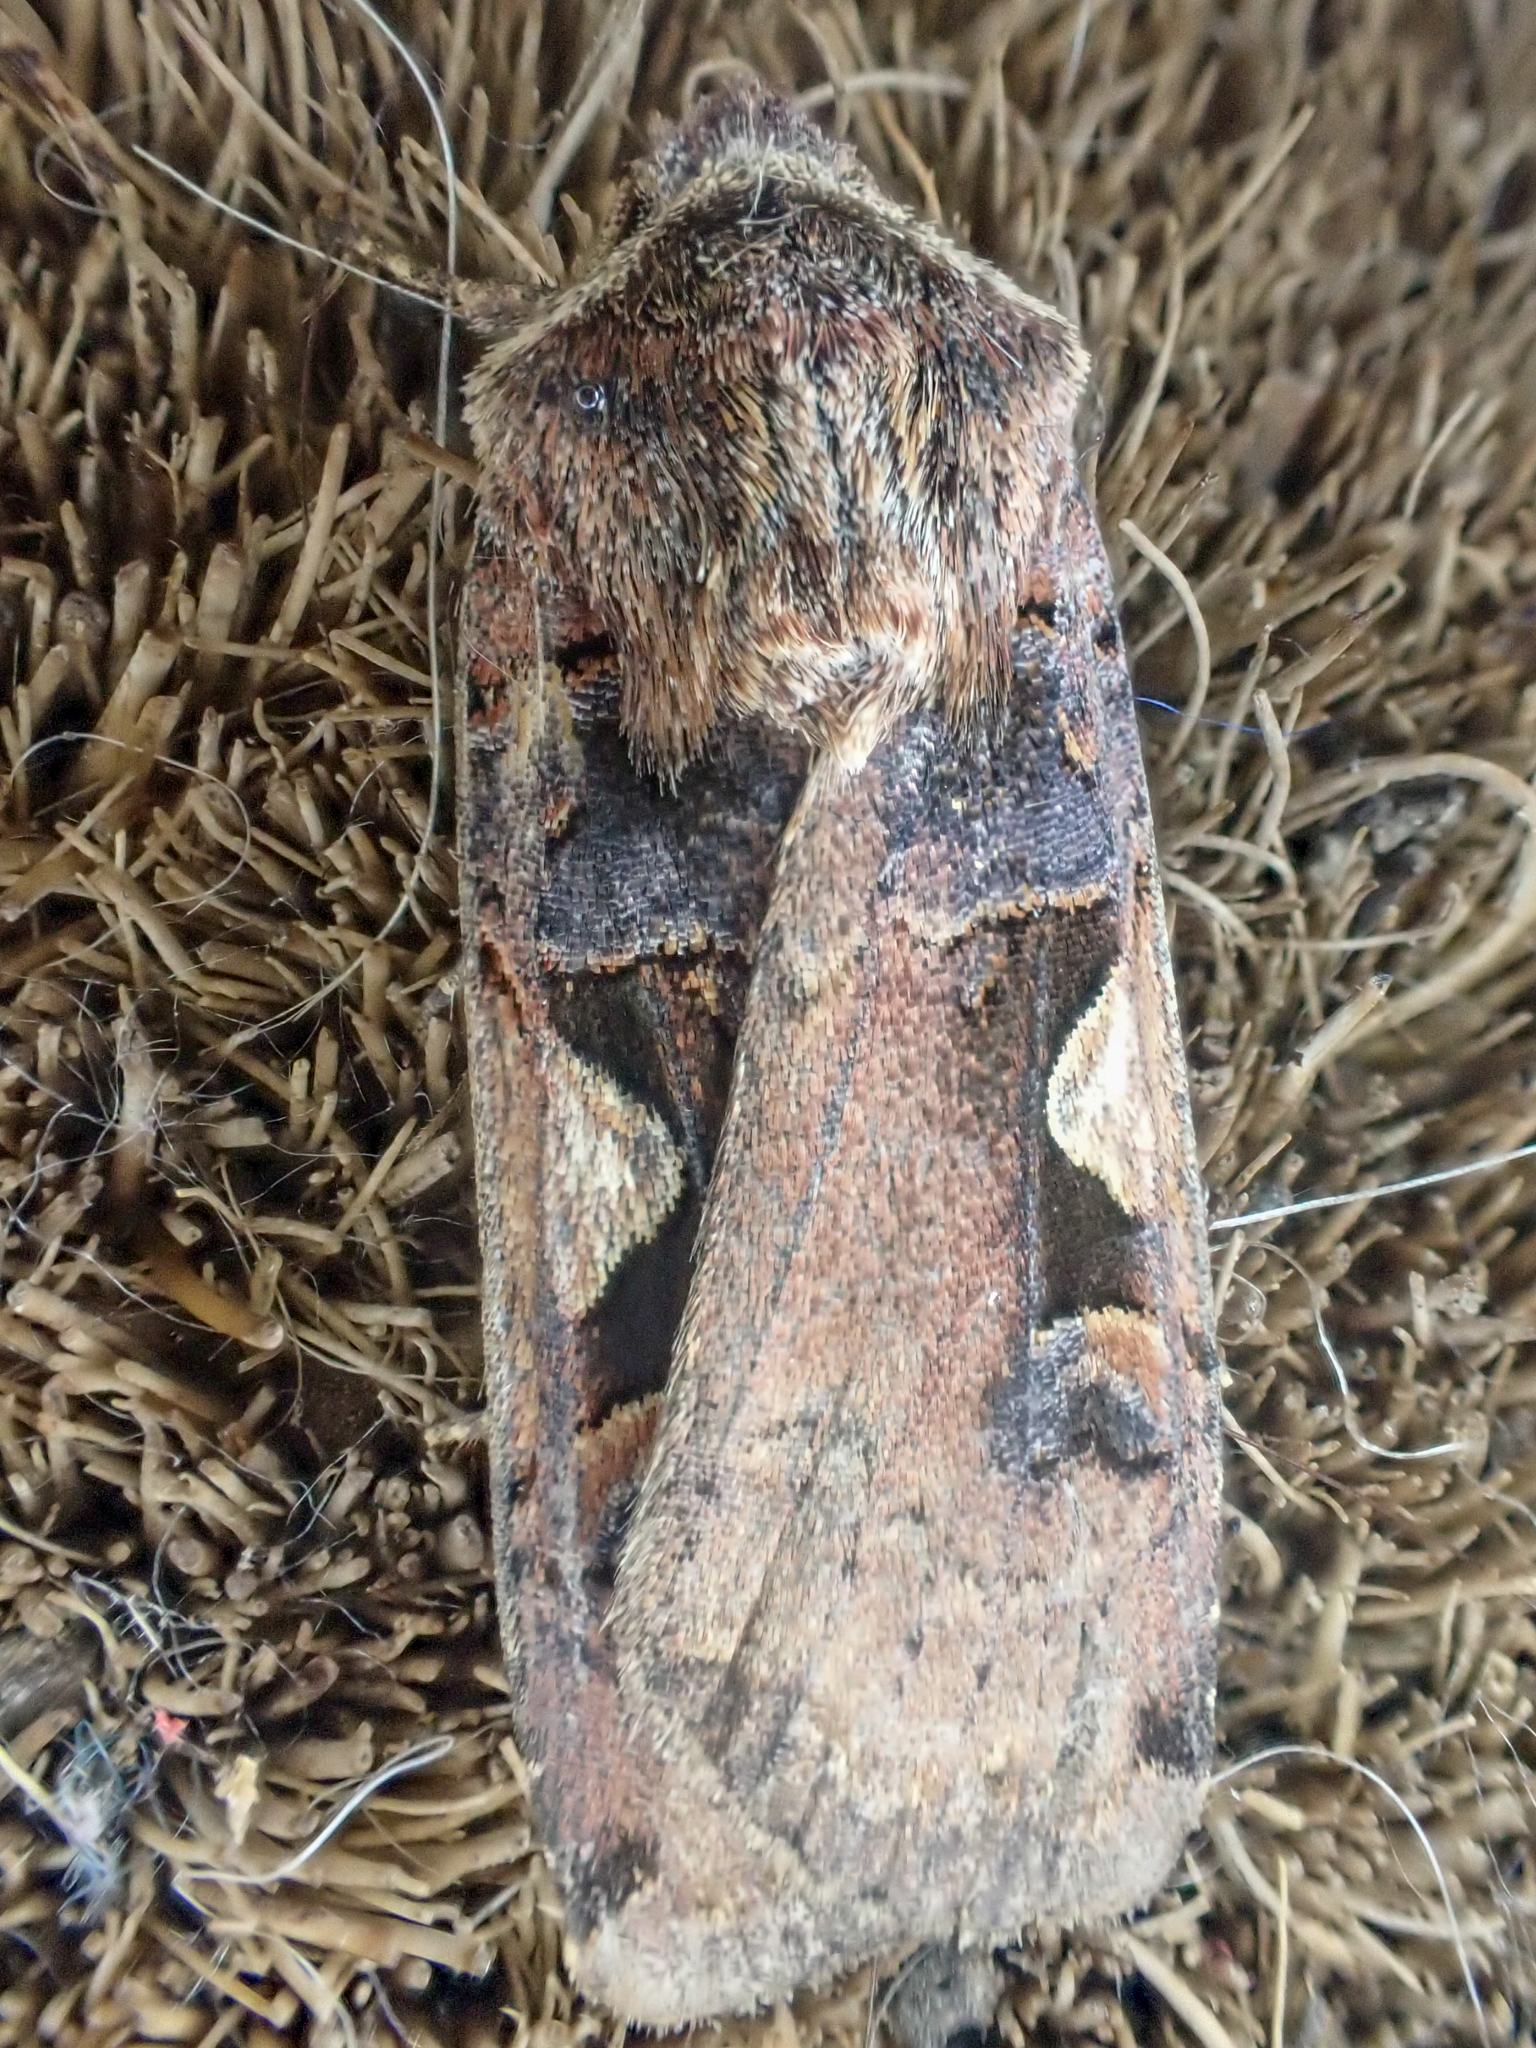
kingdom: Animalia
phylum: Arthropoda
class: Insecta
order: Lepidoptera
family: Noctuidae
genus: Xestia
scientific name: Xestia c-nigrum
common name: Setaceous hebrew character
